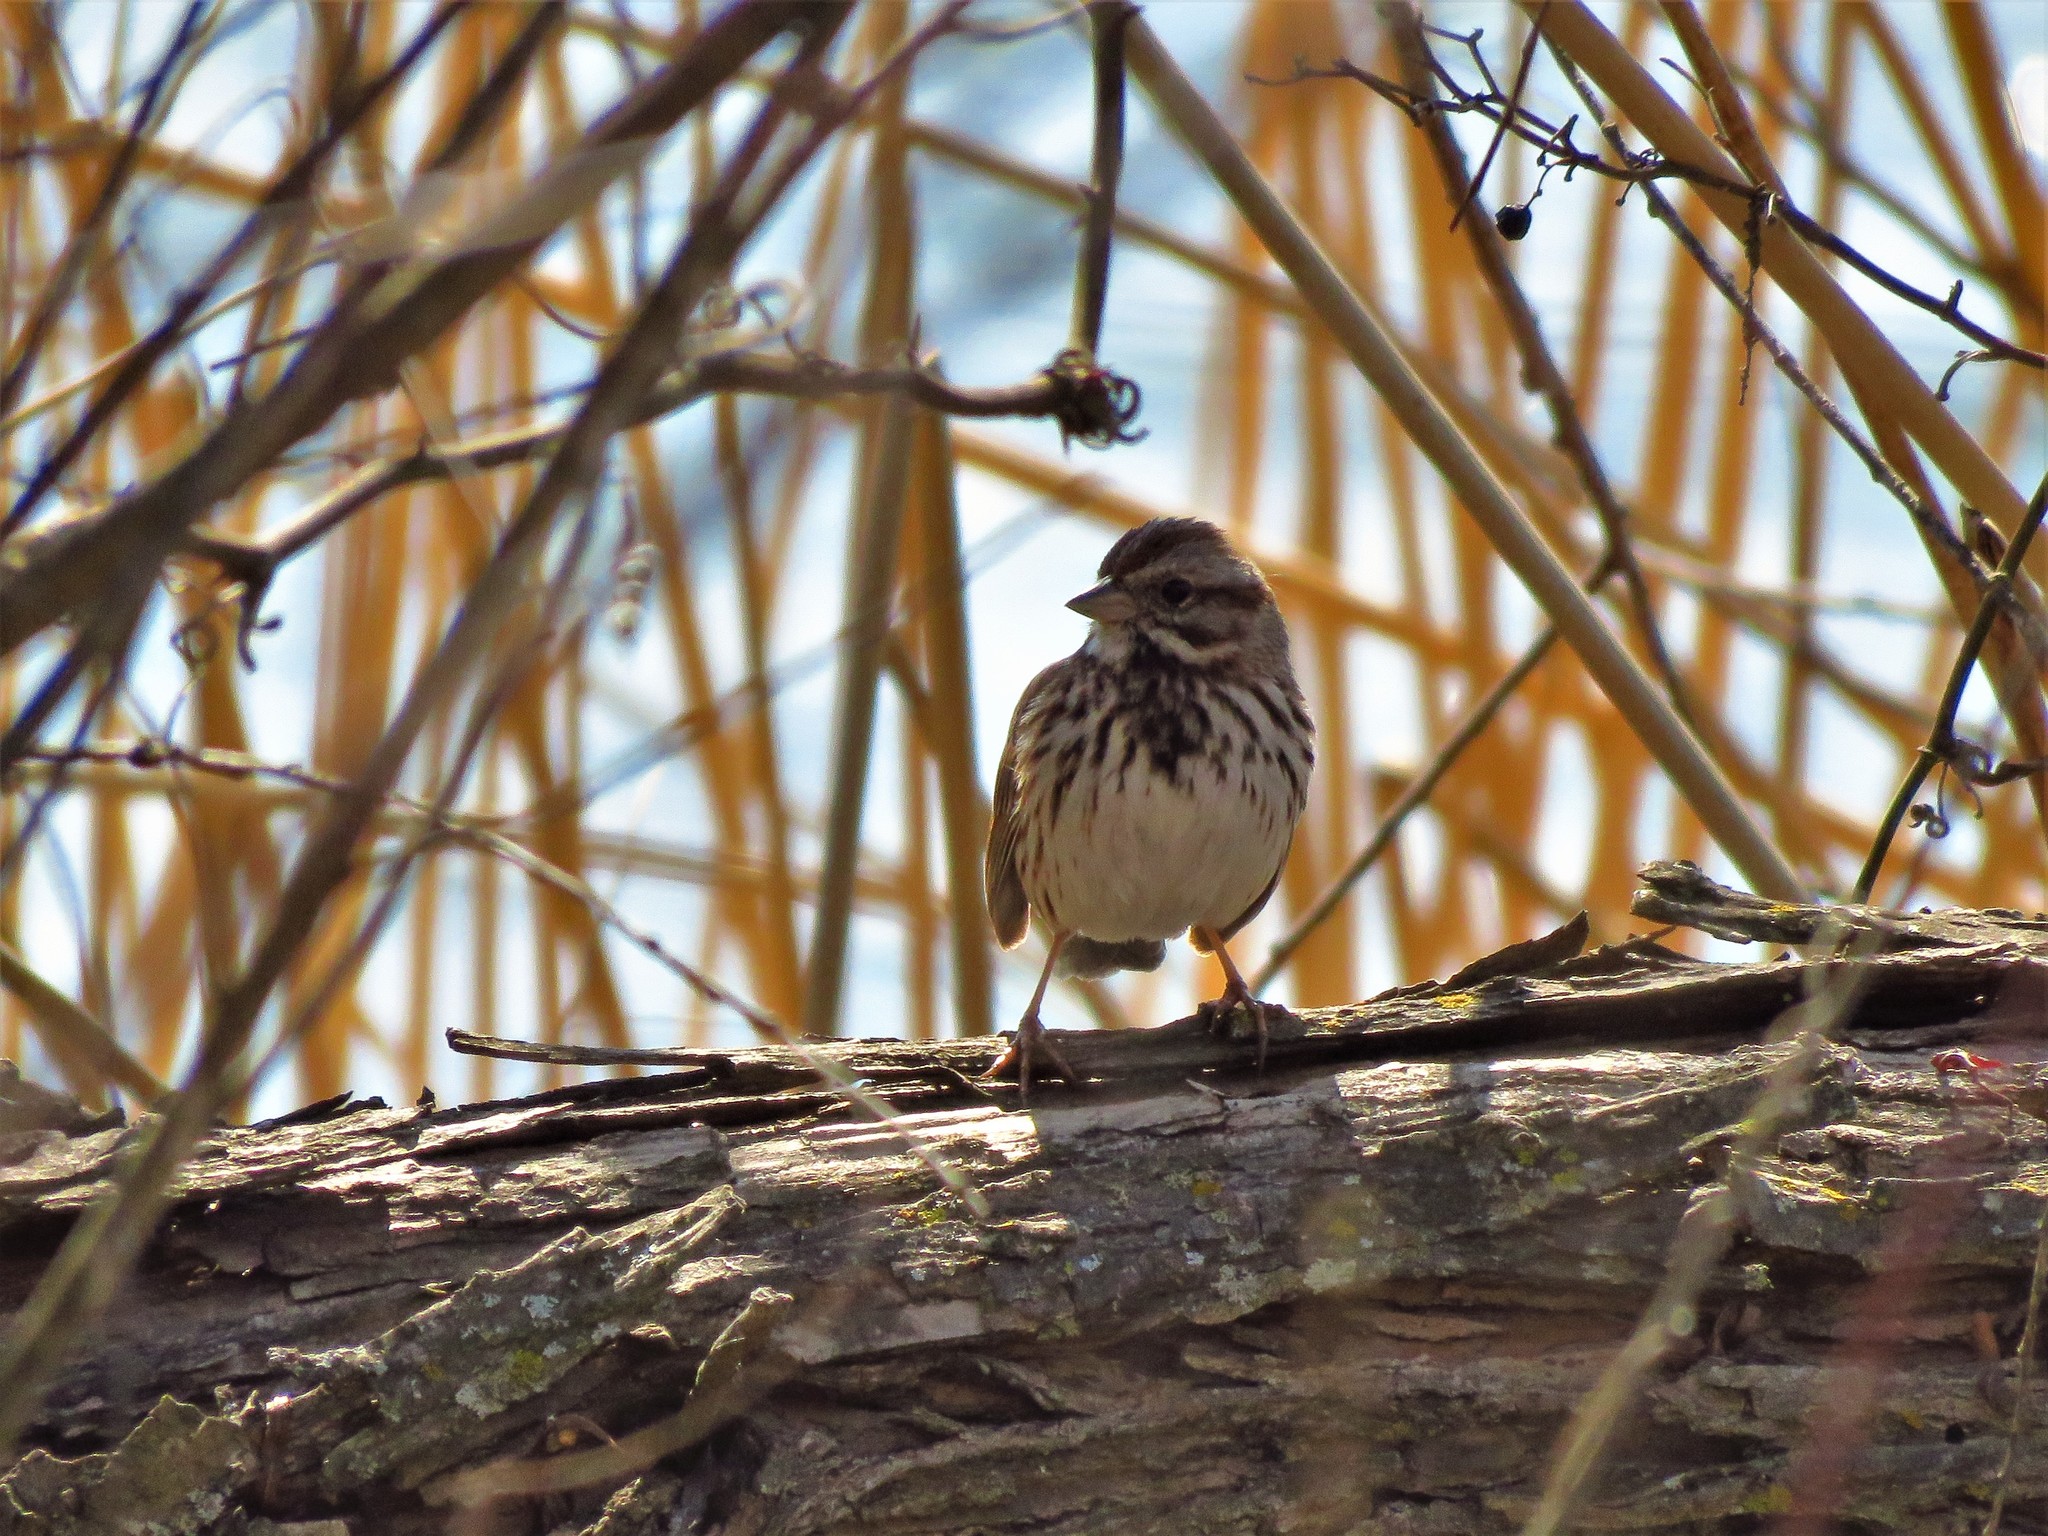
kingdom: Animalia
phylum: Chordata
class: Aves
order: Passeriformes
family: Passerellidae
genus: Melospiza
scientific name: Melospiza melodia
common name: Song sparrow
